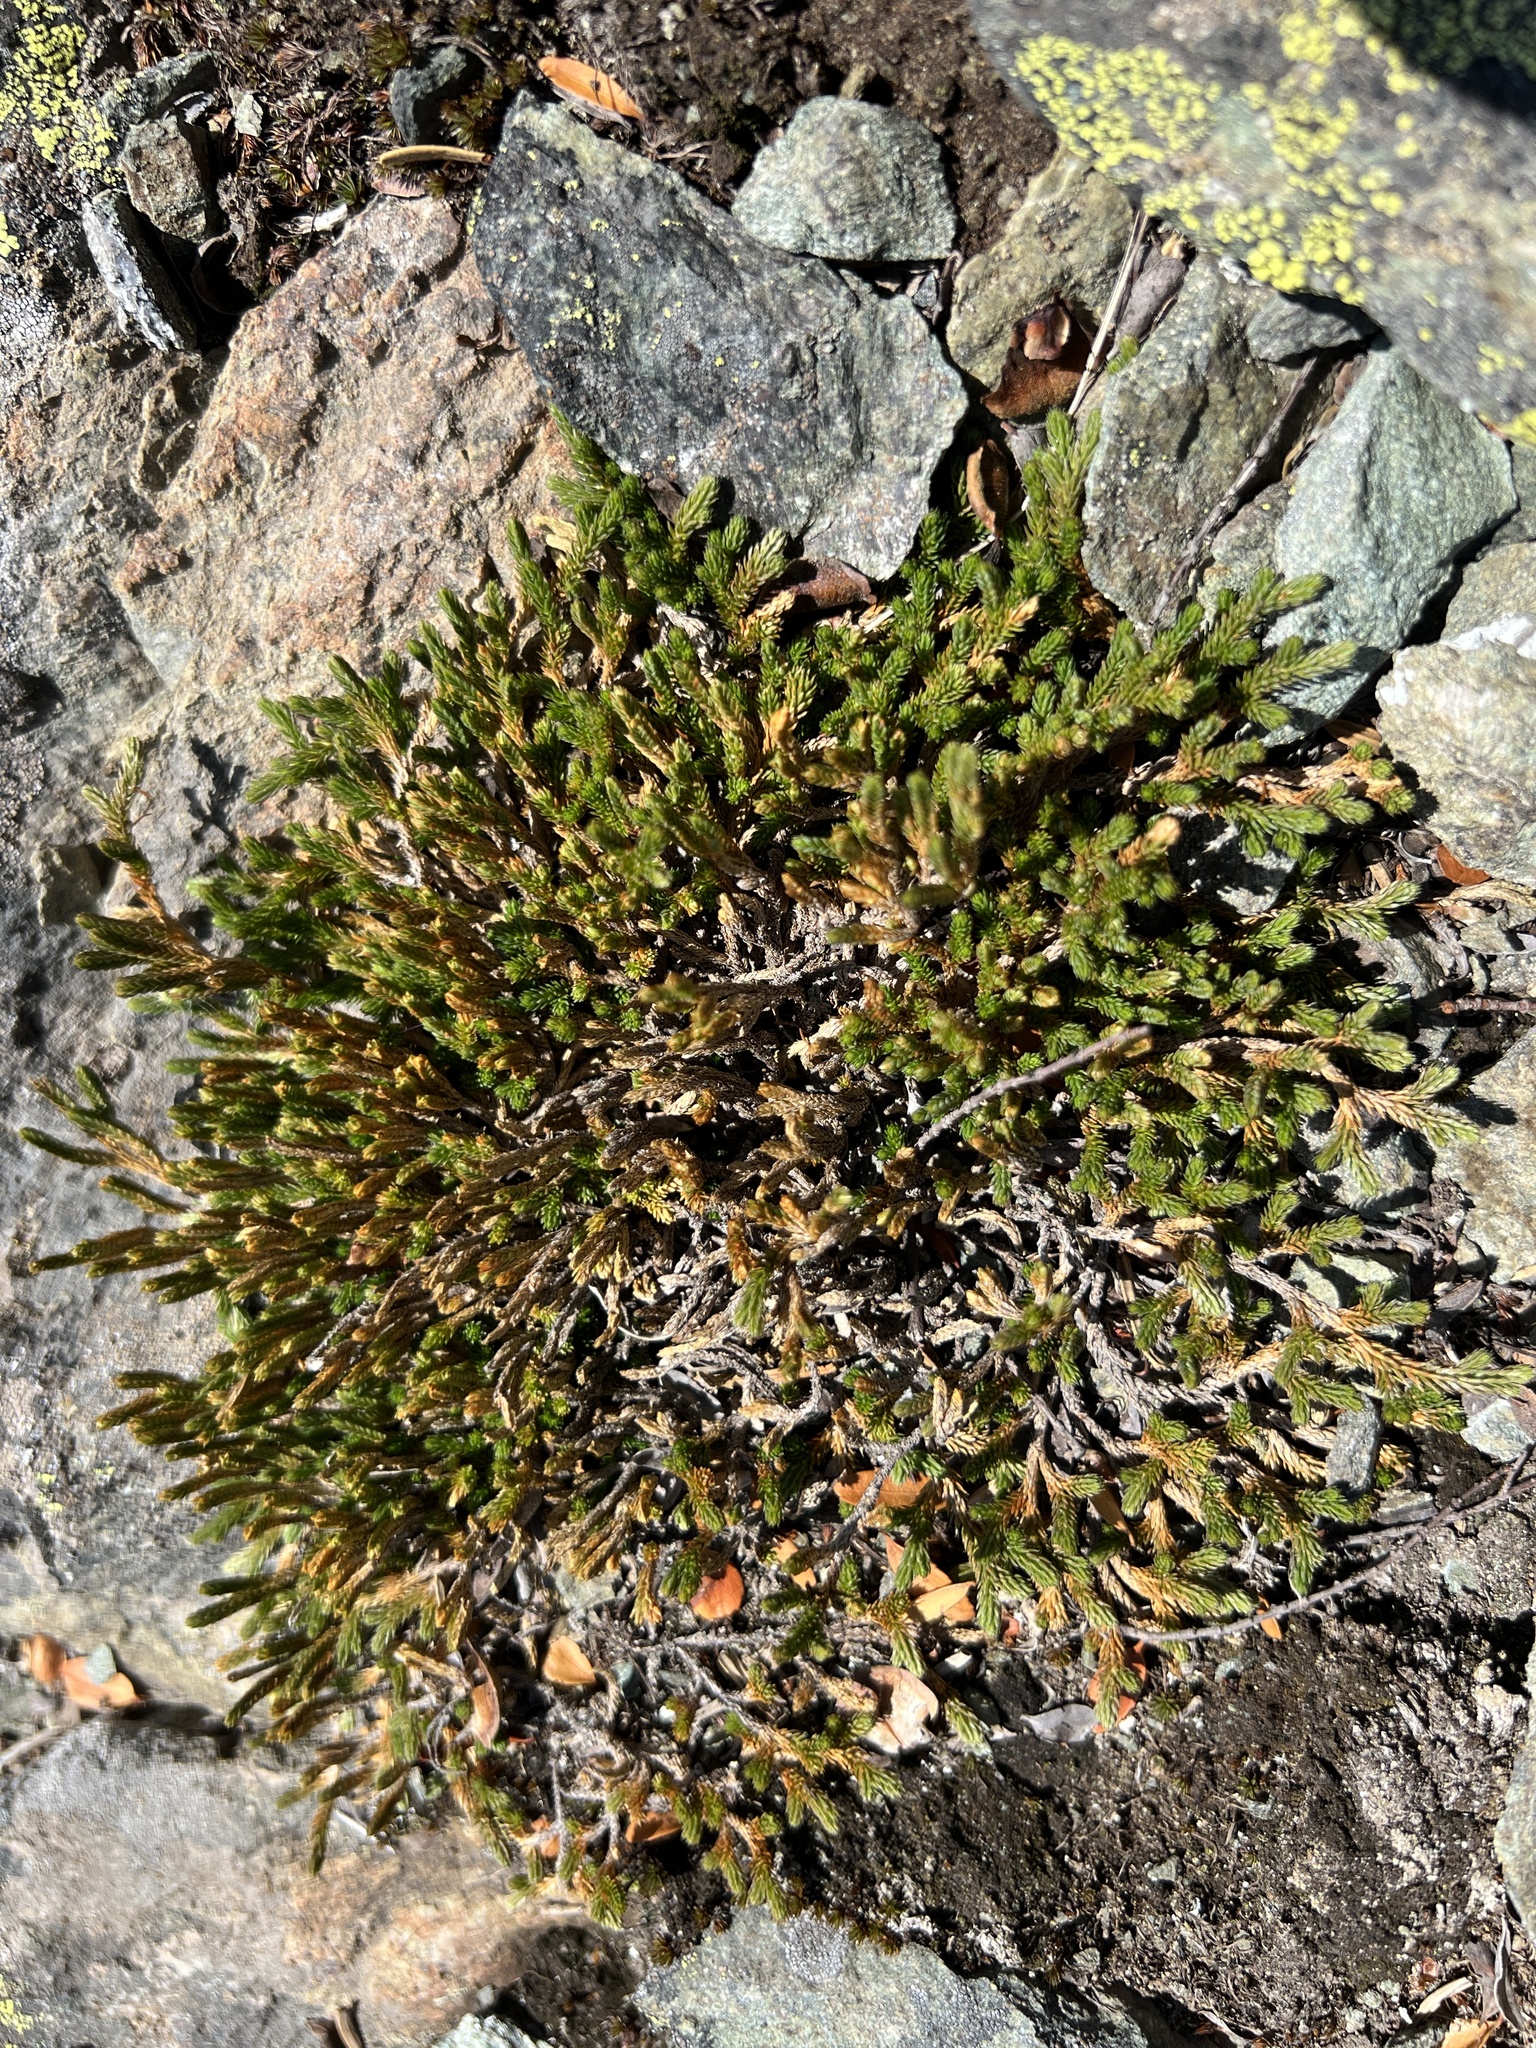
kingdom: Plantae
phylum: Tracheophyta
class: Lycopodiopsida
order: Selaginellales
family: Selaginellaceae
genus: Selaginella
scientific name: Selaginella wallacei
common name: Wallace's selaginella
